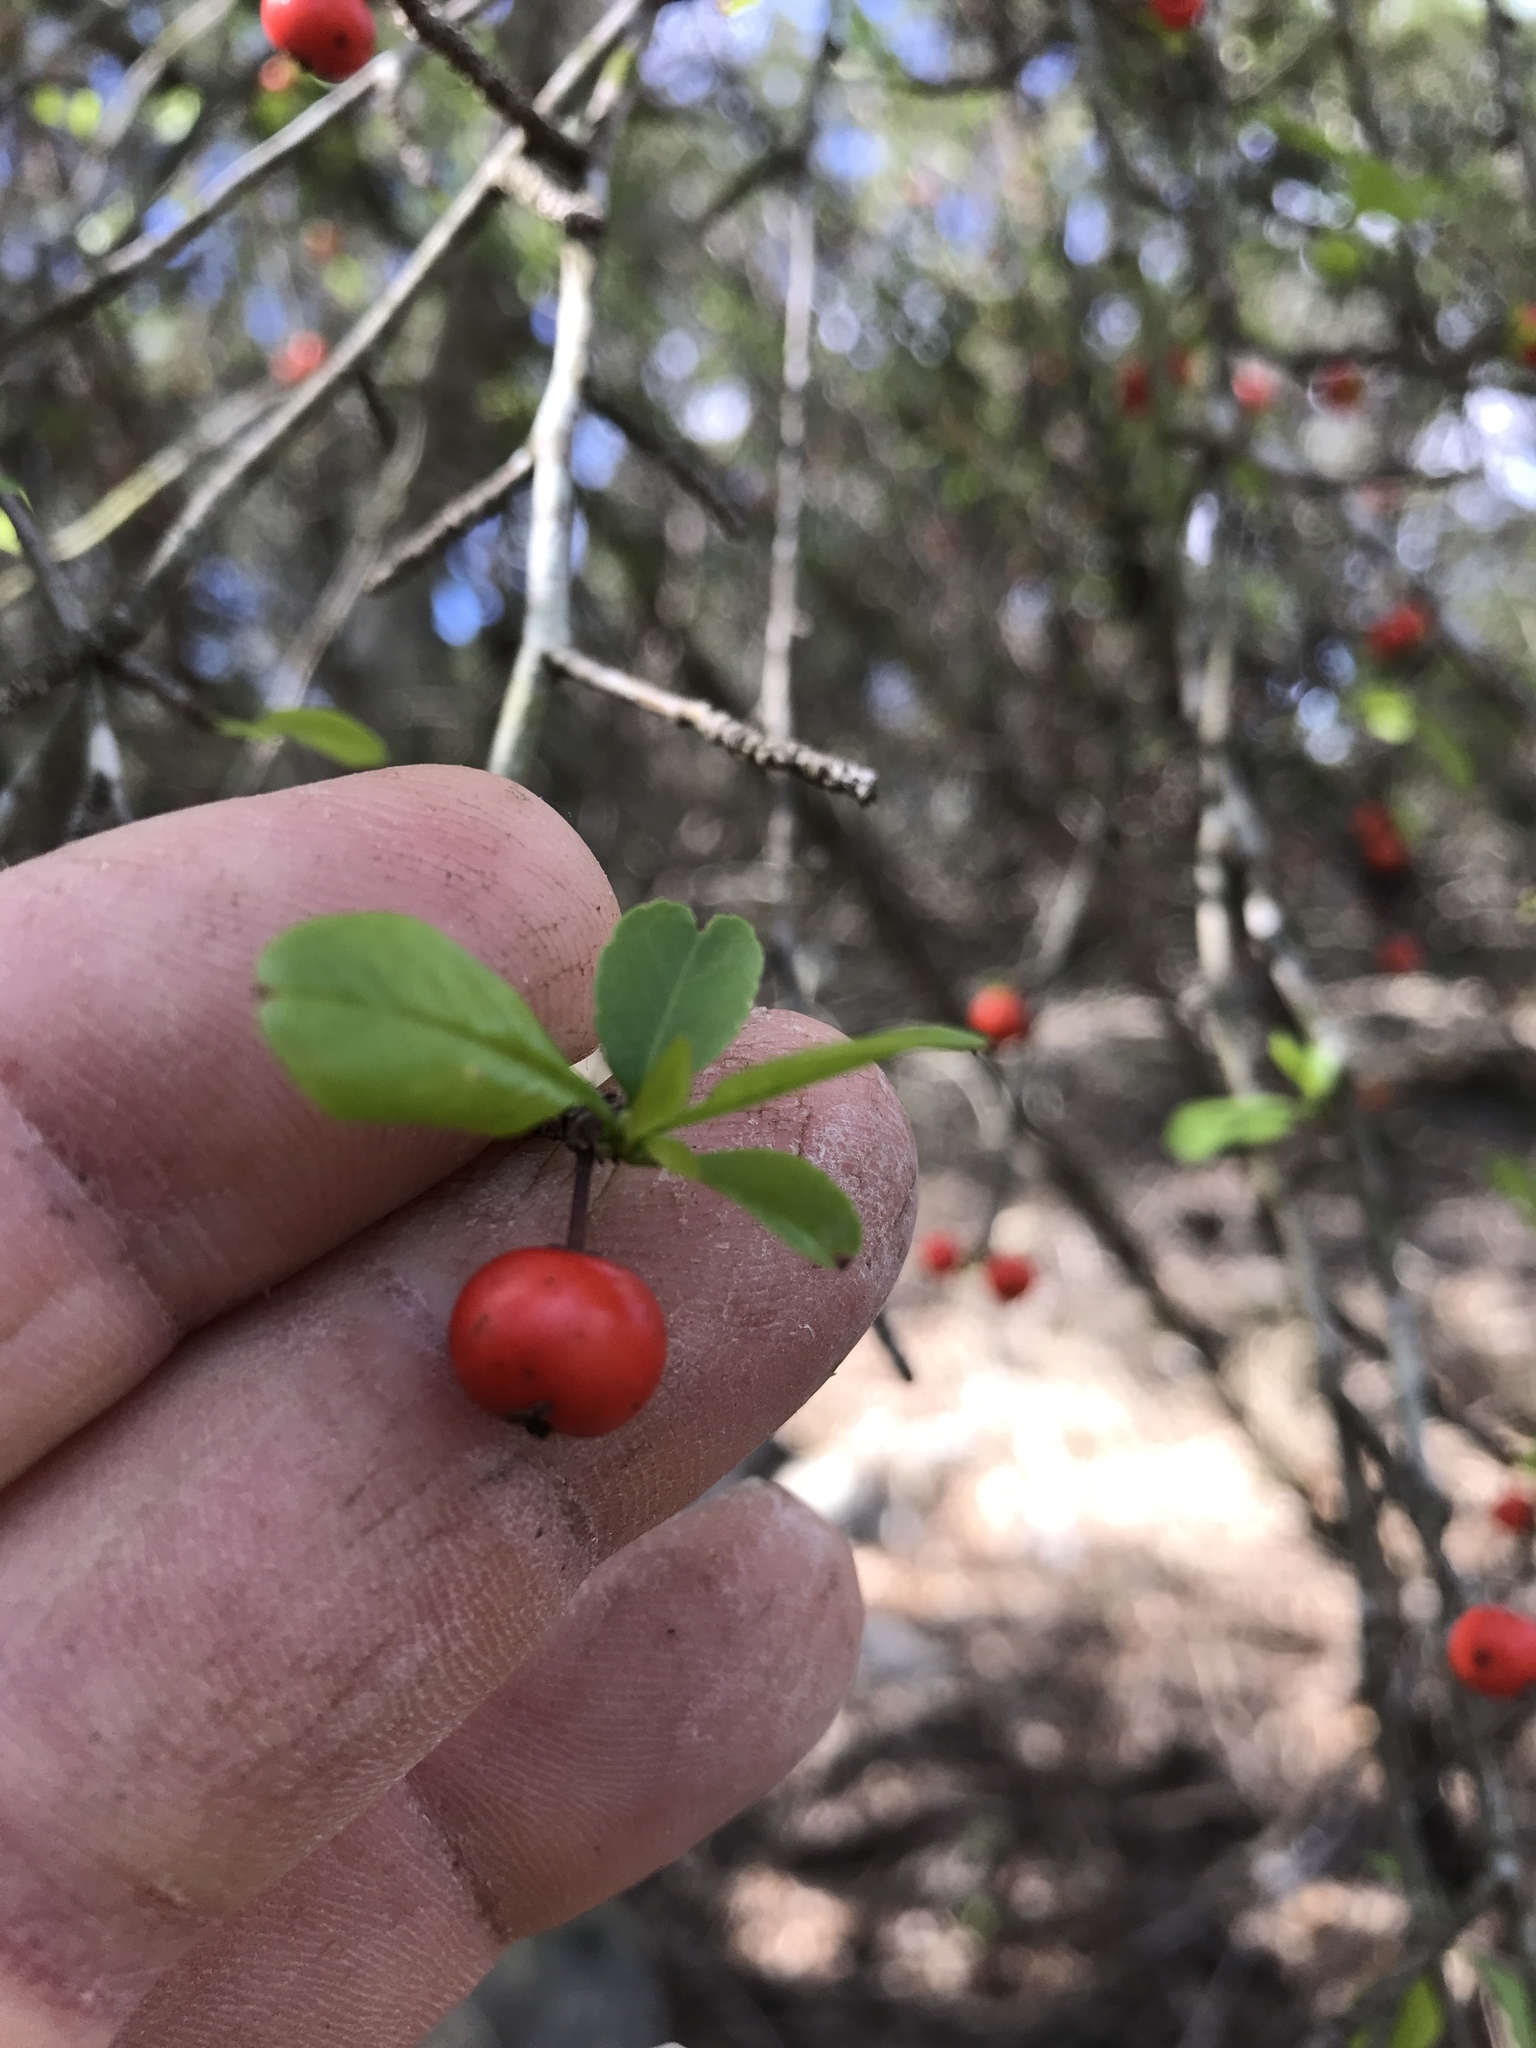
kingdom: Plantae
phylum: Tracheophyta
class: Magnoliopsida
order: Aquifoliales
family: Aquifoliaceae
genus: Ilex
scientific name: Ilex decidua
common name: Possum-haw
